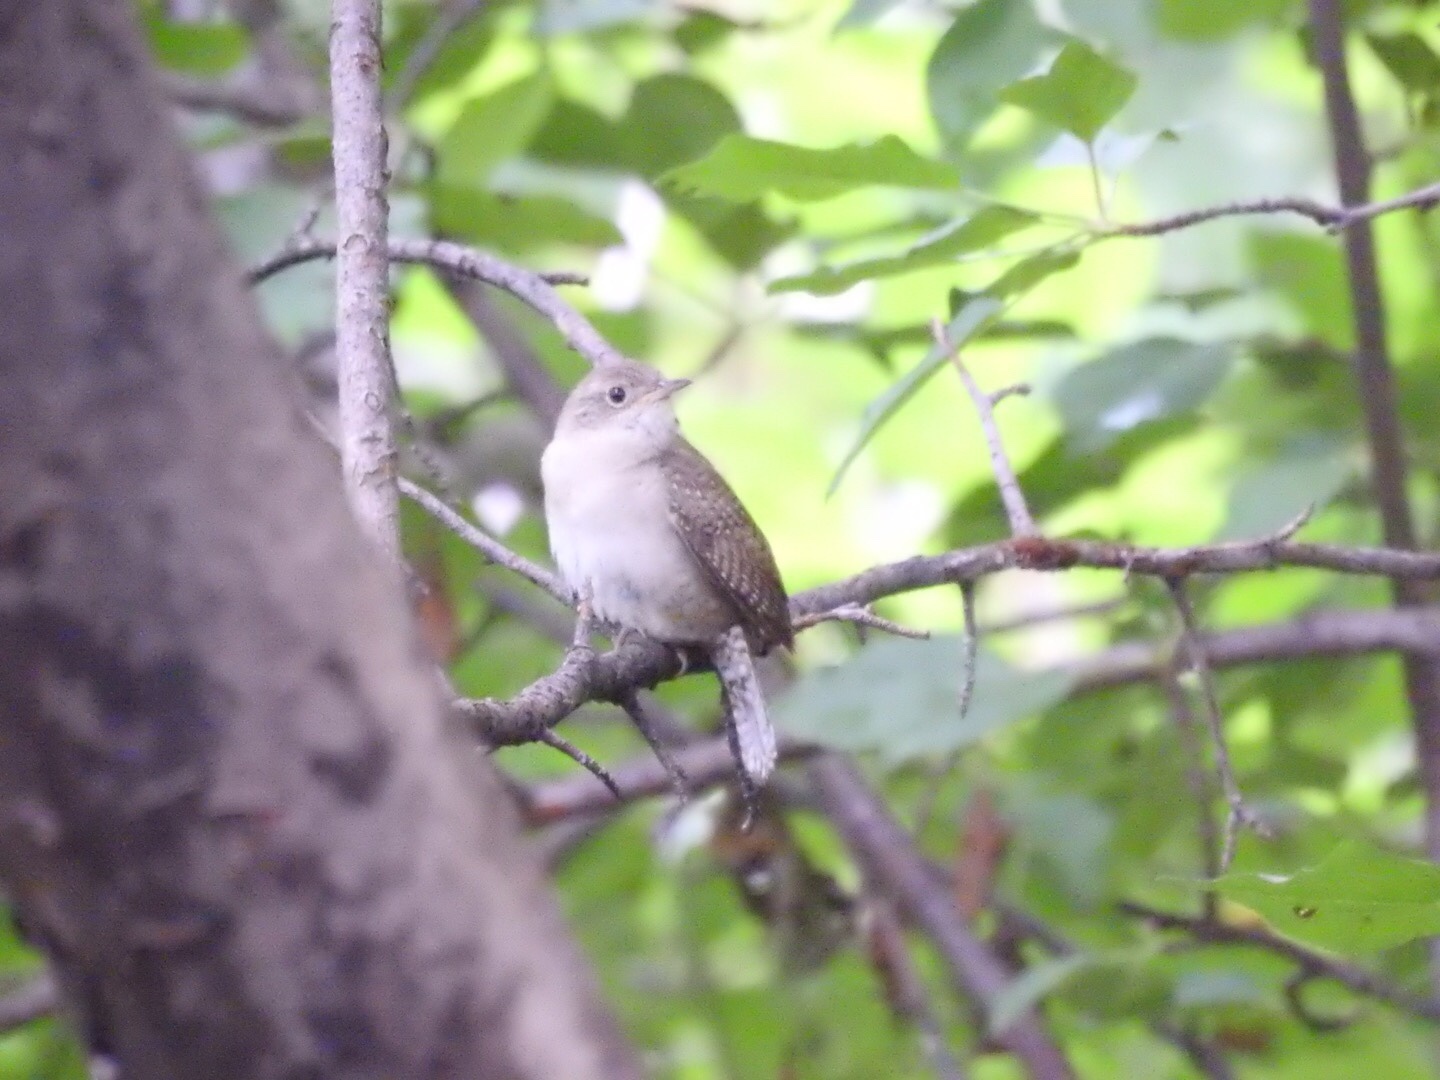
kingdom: Animalia
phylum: Chordata
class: Aves
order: Passeriformes
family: Troglodytidae
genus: Troglodytes
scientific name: Troglodytes aedon
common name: House wren
